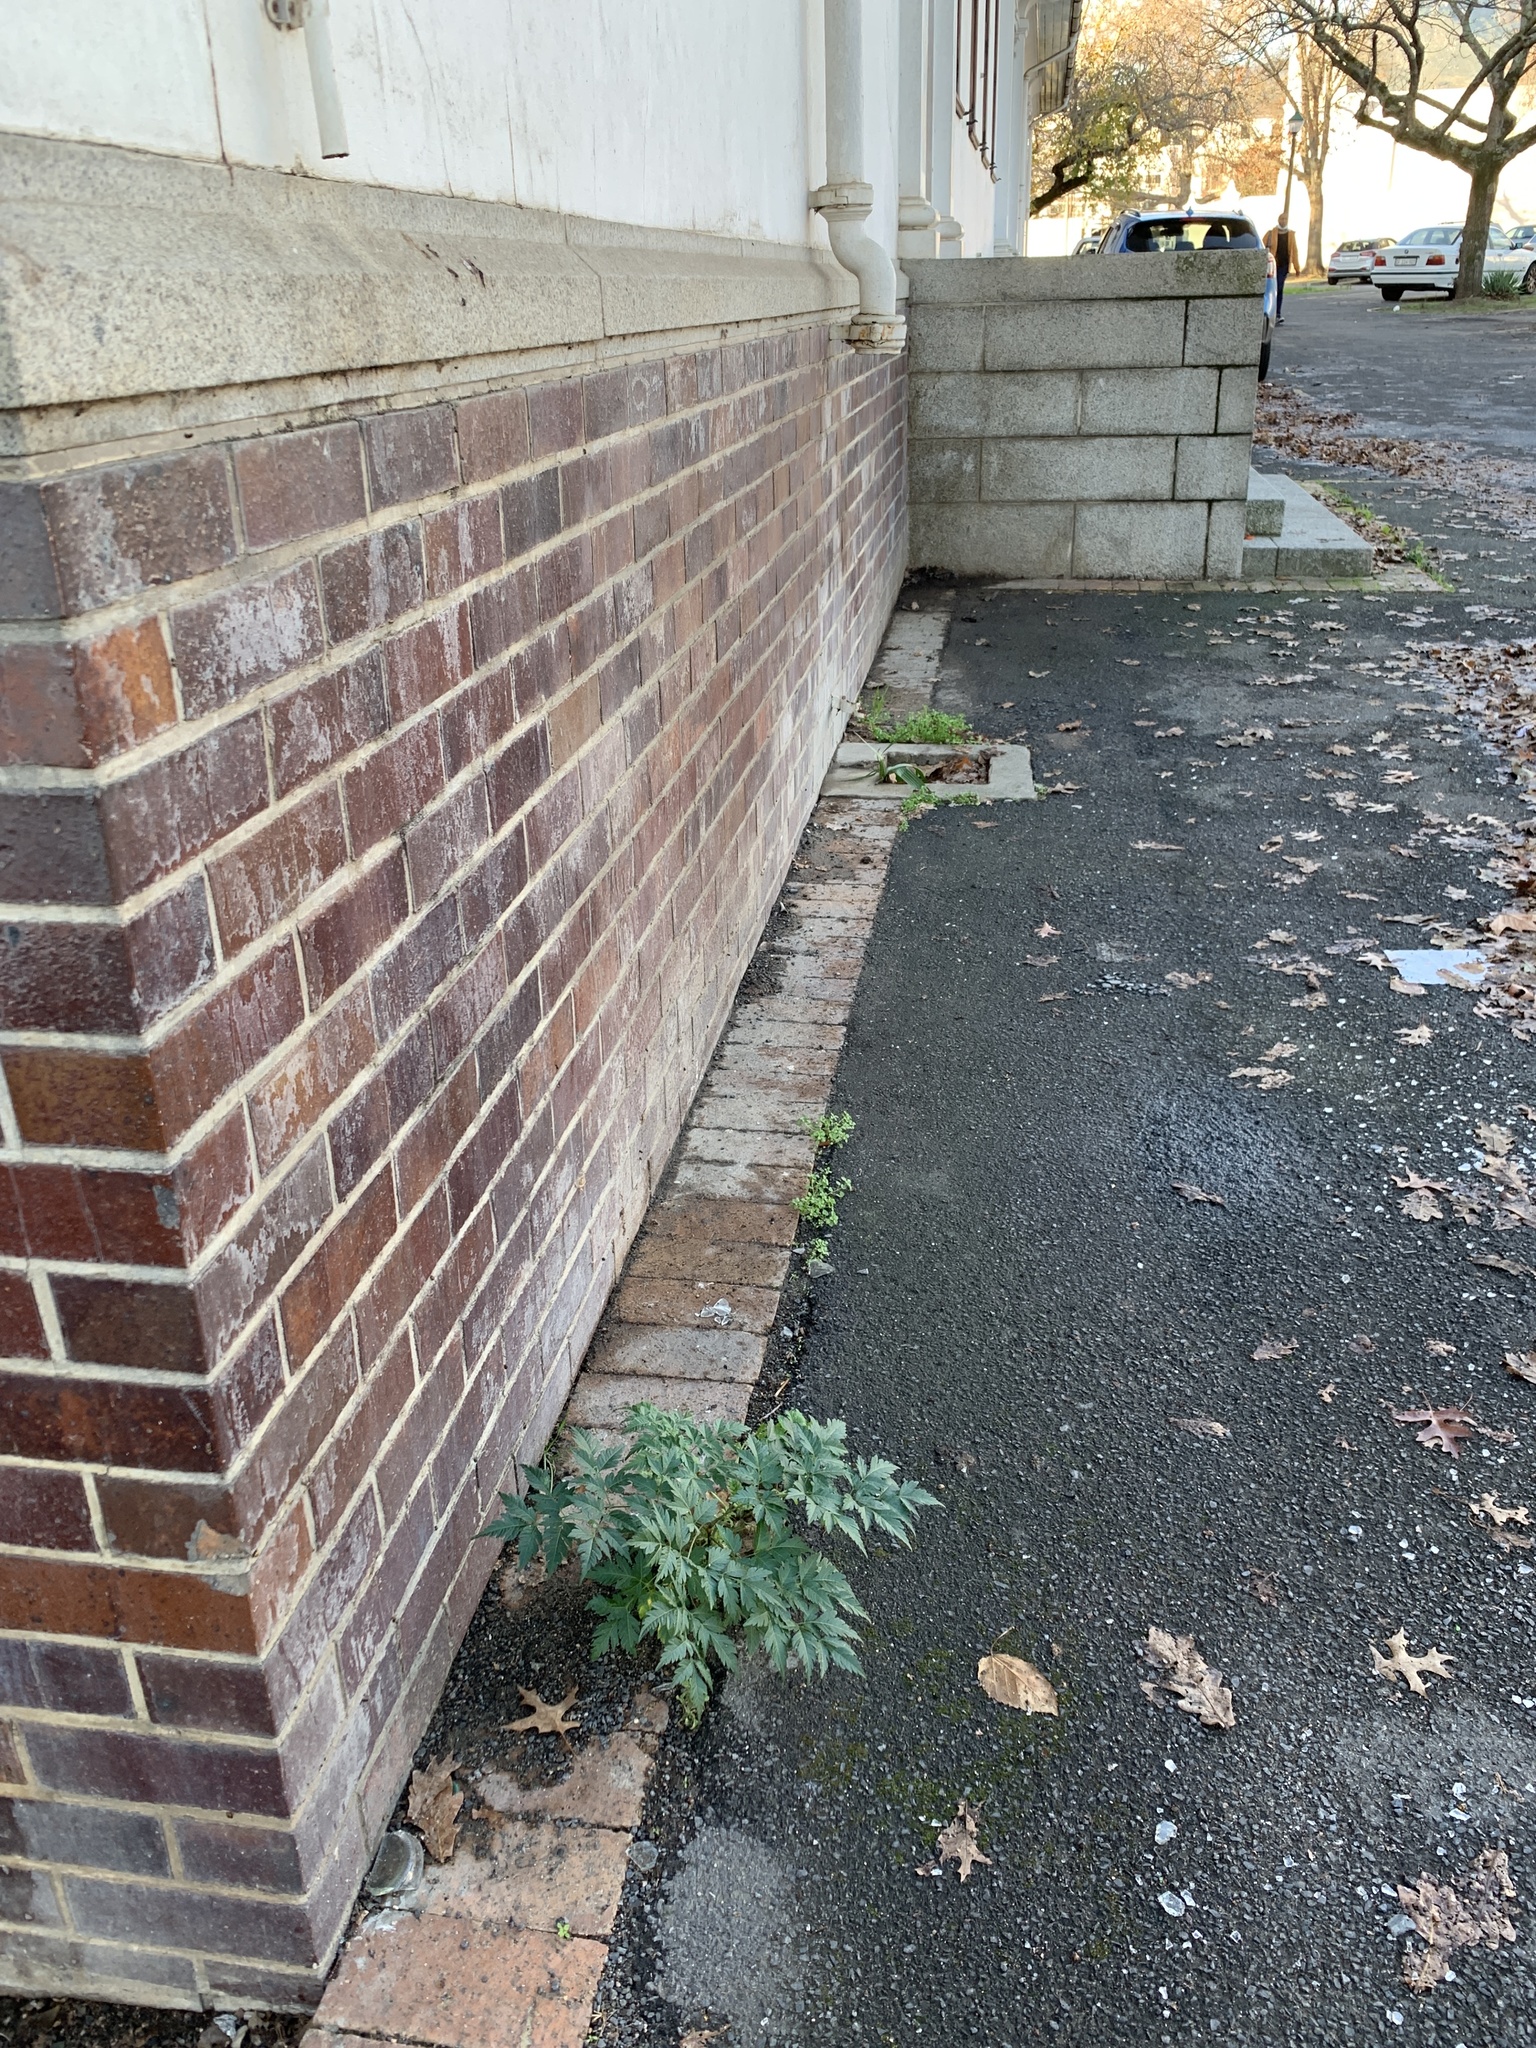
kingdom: Plantae
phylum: Tracheophyta
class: Magnoliopsida
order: Sapindales
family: Meliaceae
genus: Melia
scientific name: Melia azedarach
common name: Chinaberrytree
